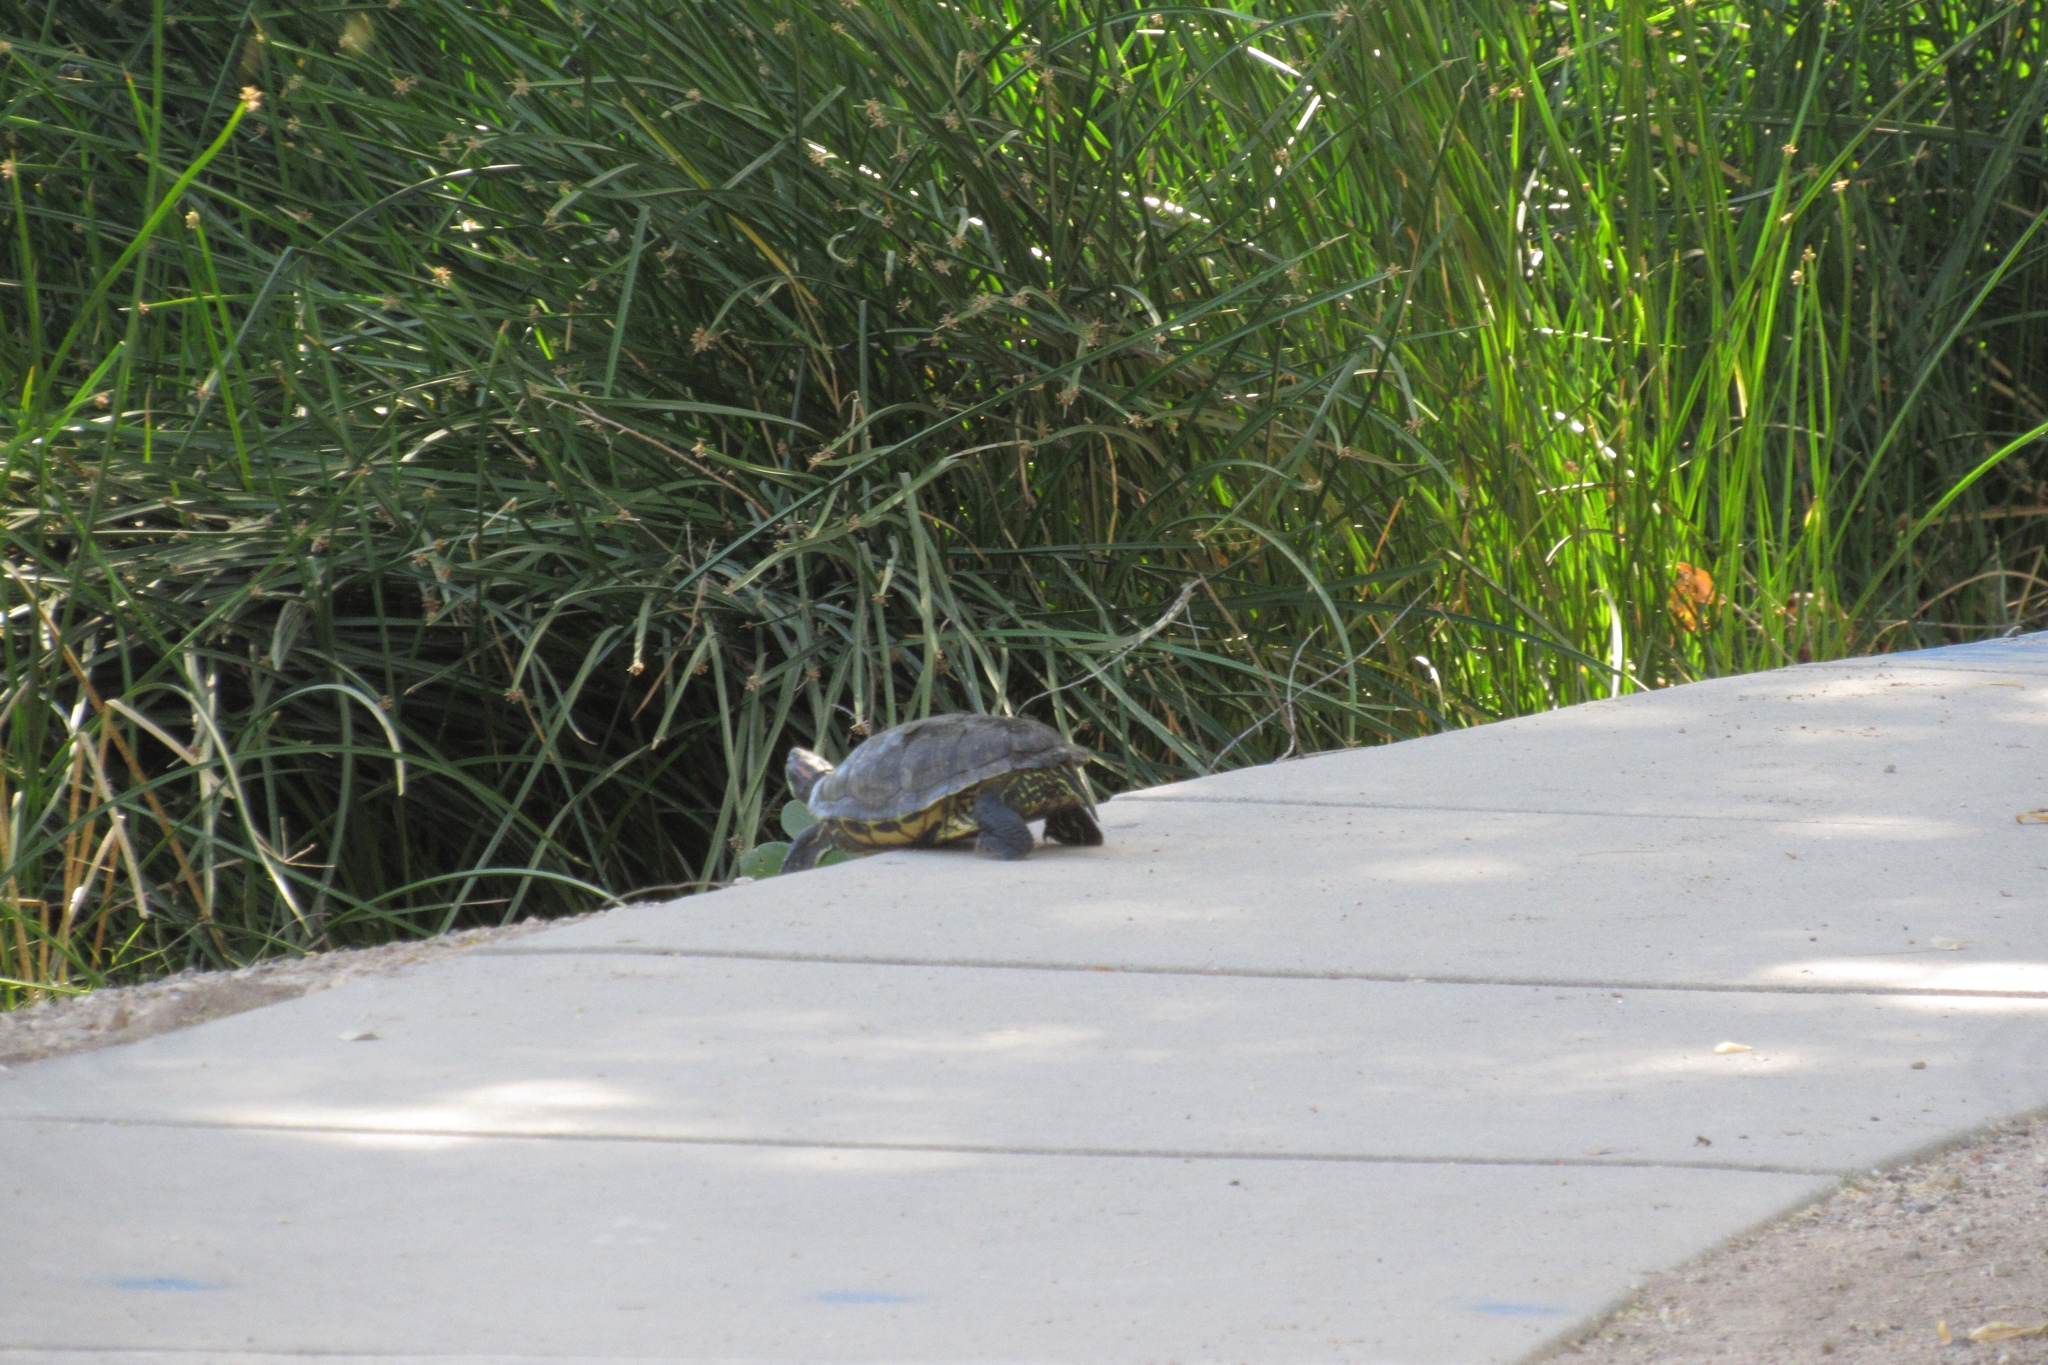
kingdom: Animalia
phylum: Chordata
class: Testudines
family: Emydidae
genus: Trachemys
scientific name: Trachemys scripta
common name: Slider
